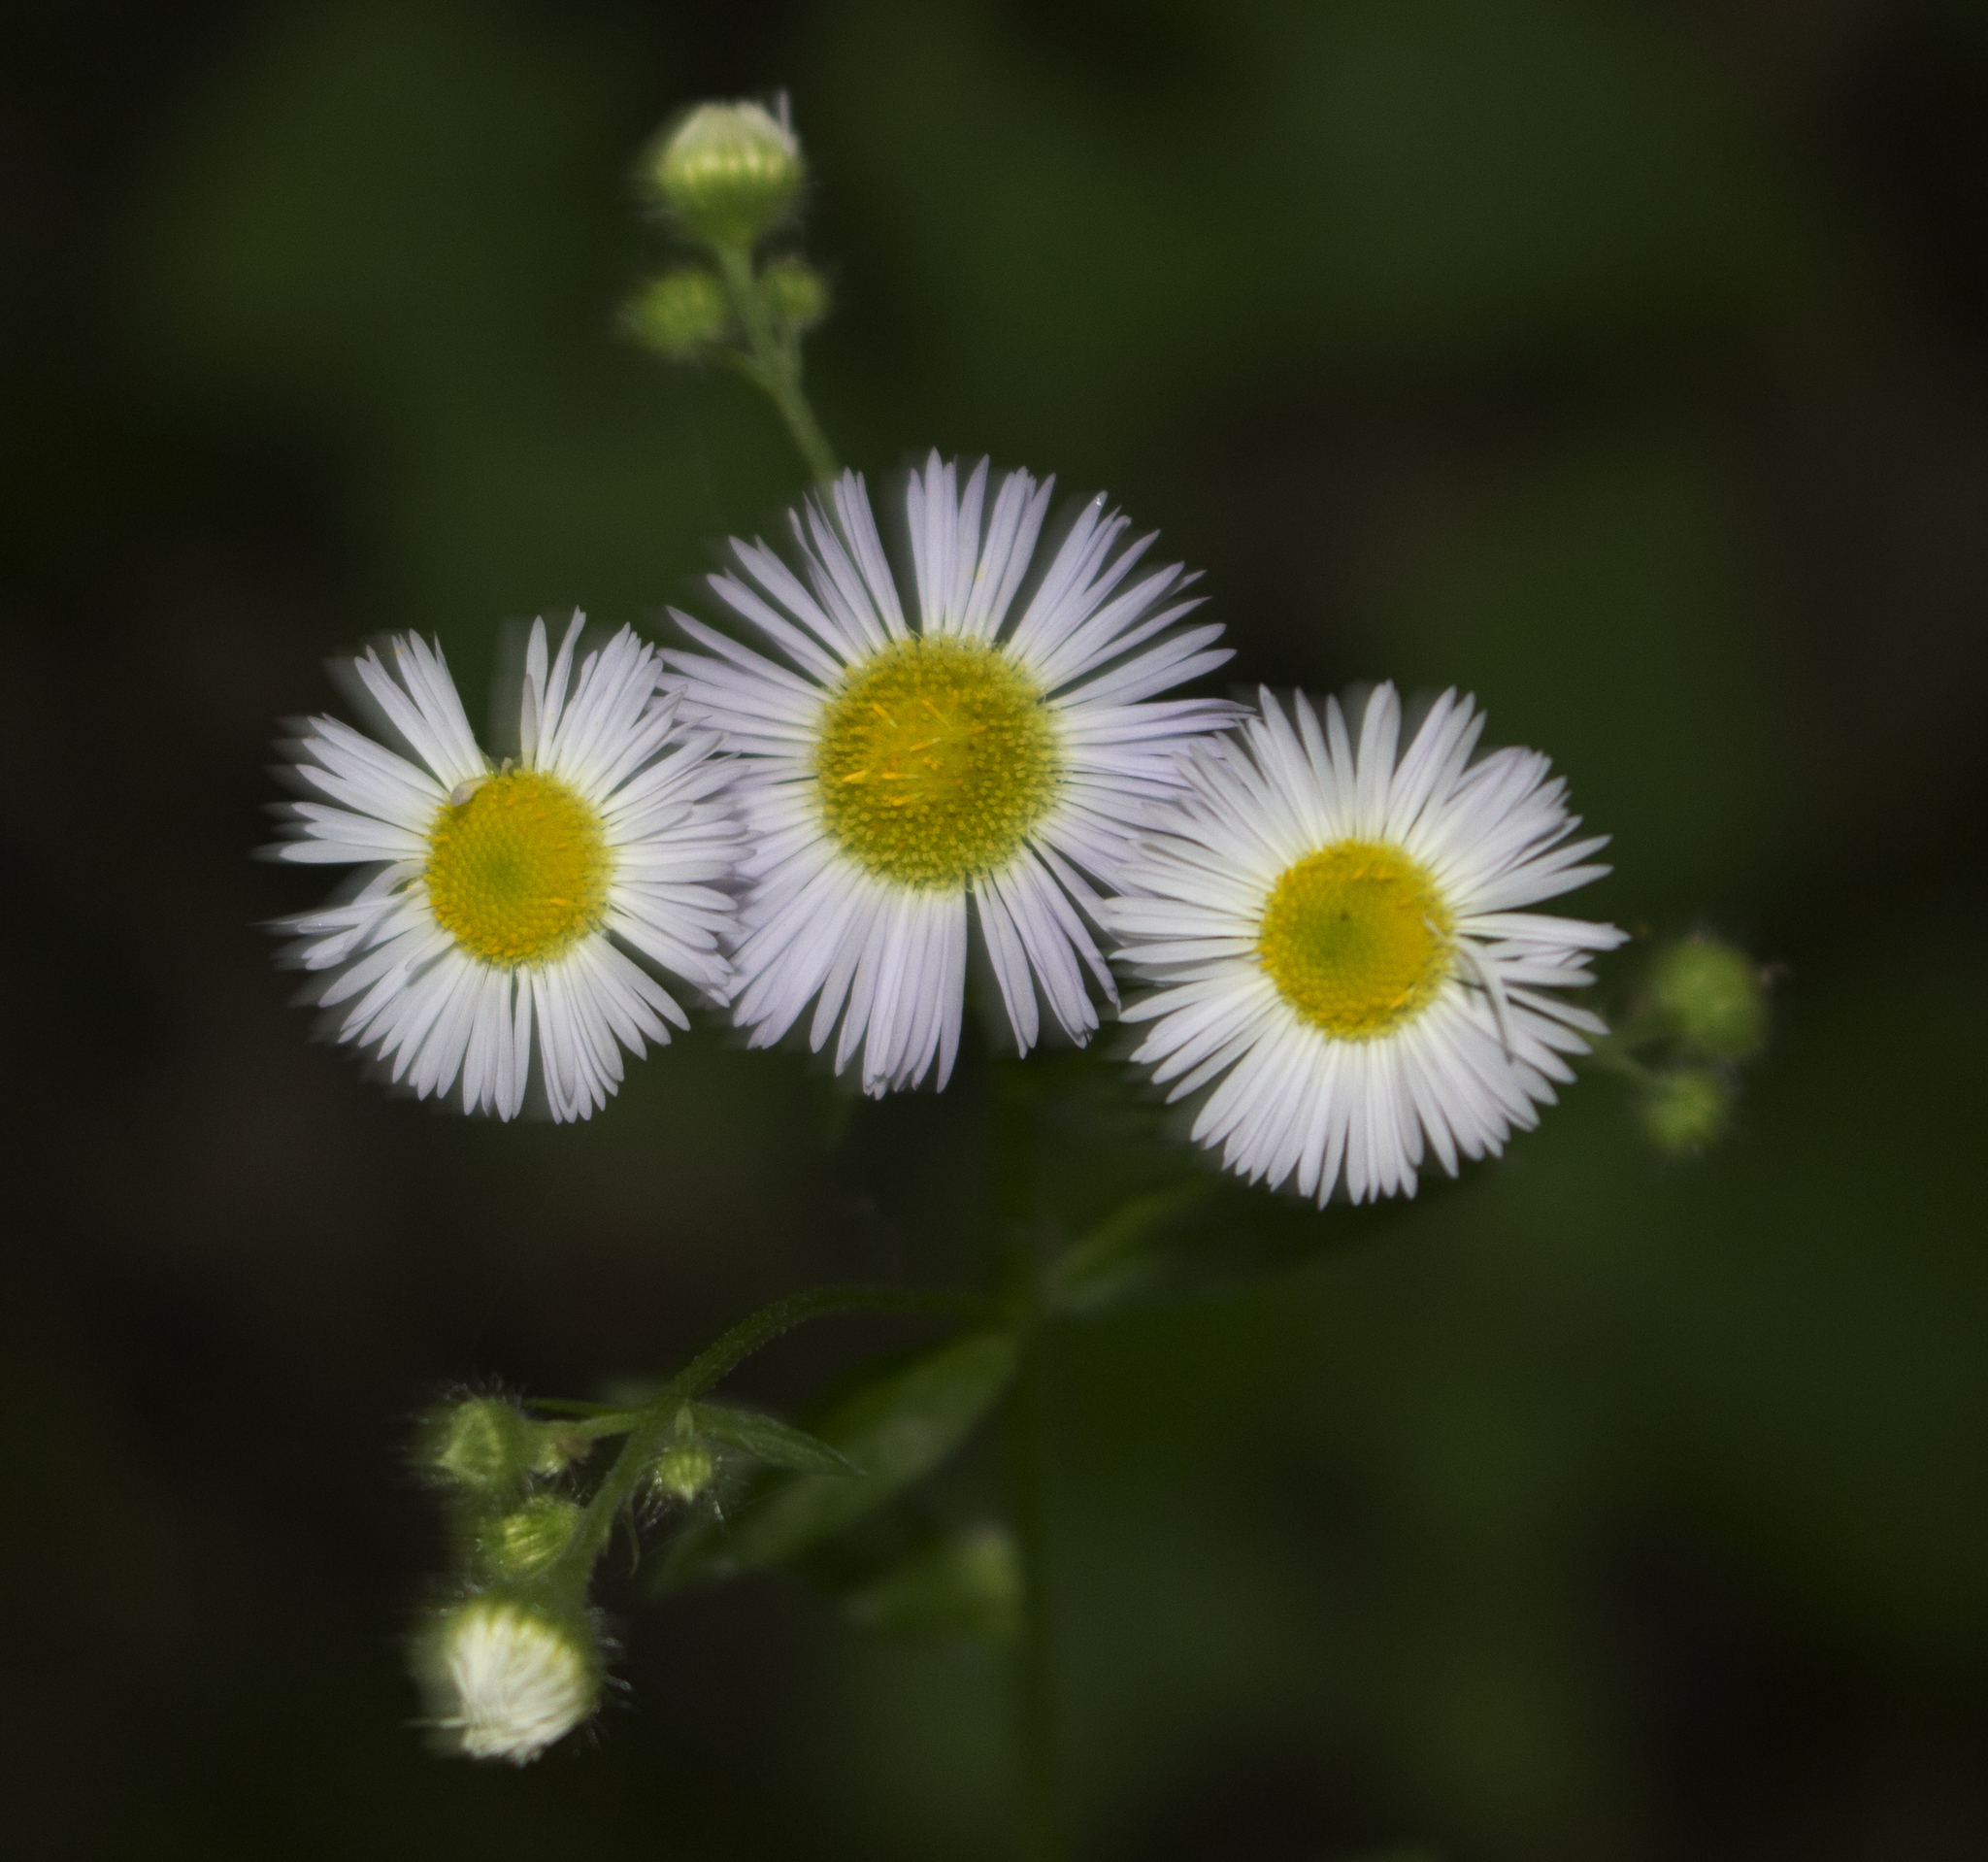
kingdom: Plantae
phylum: Tracheophyta
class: Magnoliopsida
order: Asterales
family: Asteraceae
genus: Erigeron
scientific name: Erigeron annuus
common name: Tall fleabane
